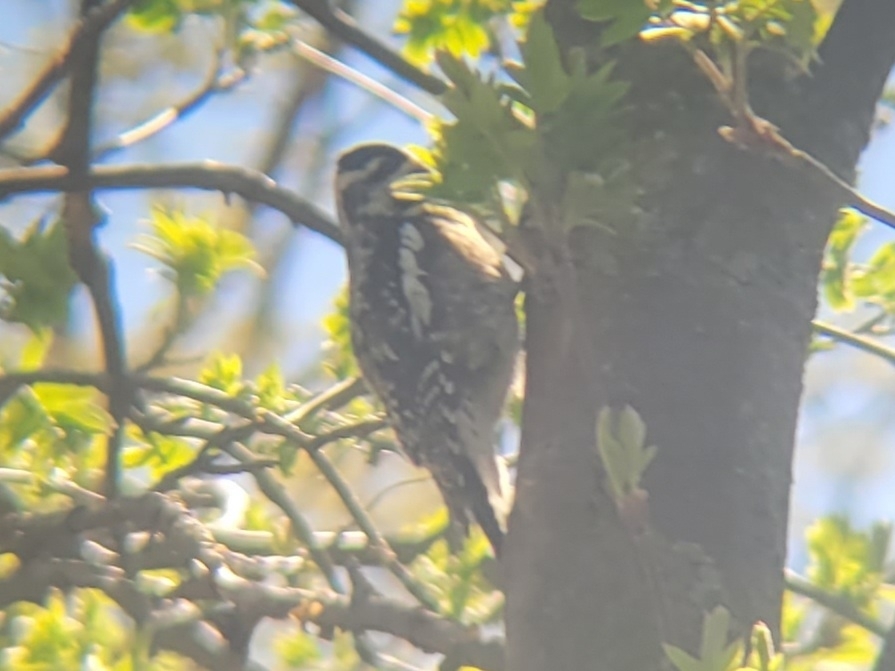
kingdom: Animalia
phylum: Chordata
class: Aves
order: Piciformes
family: Picidae
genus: Sphyrapicus
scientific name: Sphyrapicus varius
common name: Yellow-bellied sapsucker
